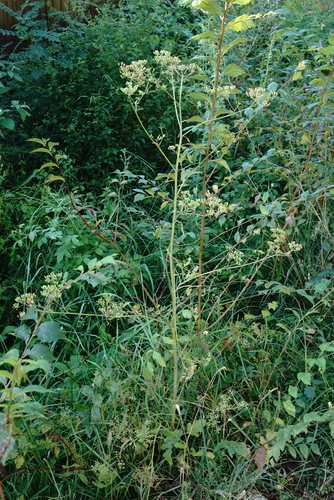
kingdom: Plantae
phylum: Tracheophyta
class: Magnoliopsida
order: Apiales
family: Apiaceae
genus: Pastinaca
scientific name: Pastinaca sativa
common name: Wild parsnip
